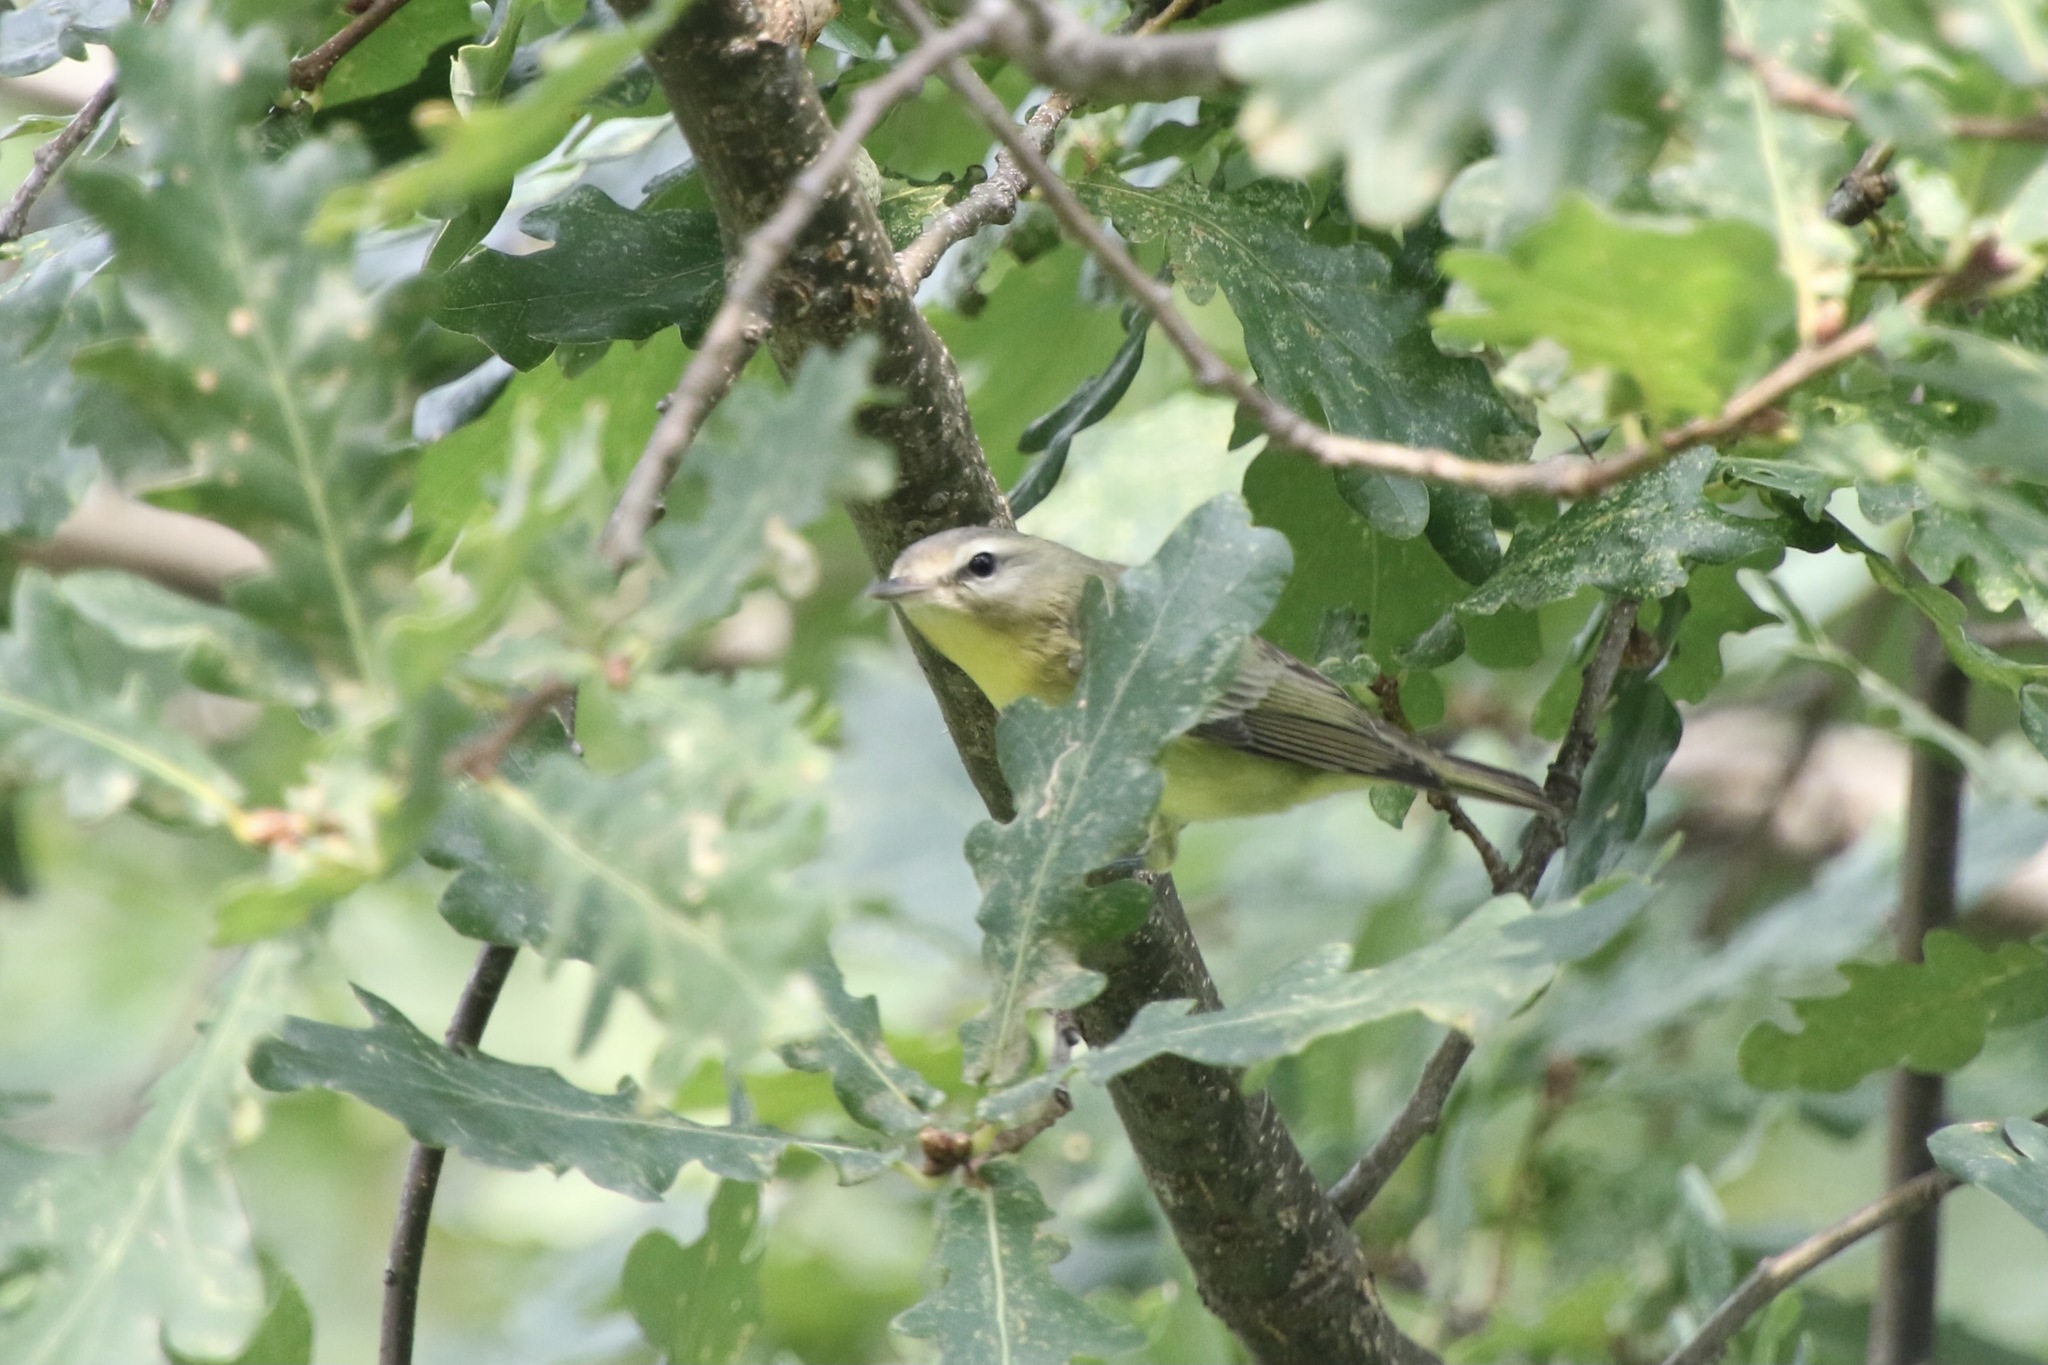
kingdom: Animalia
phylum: Chordata
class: Aves
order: Passeriformes
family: Vireonidae
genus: Vireo
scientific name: Vireo philadelphicus
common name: Philadelphia vireo
